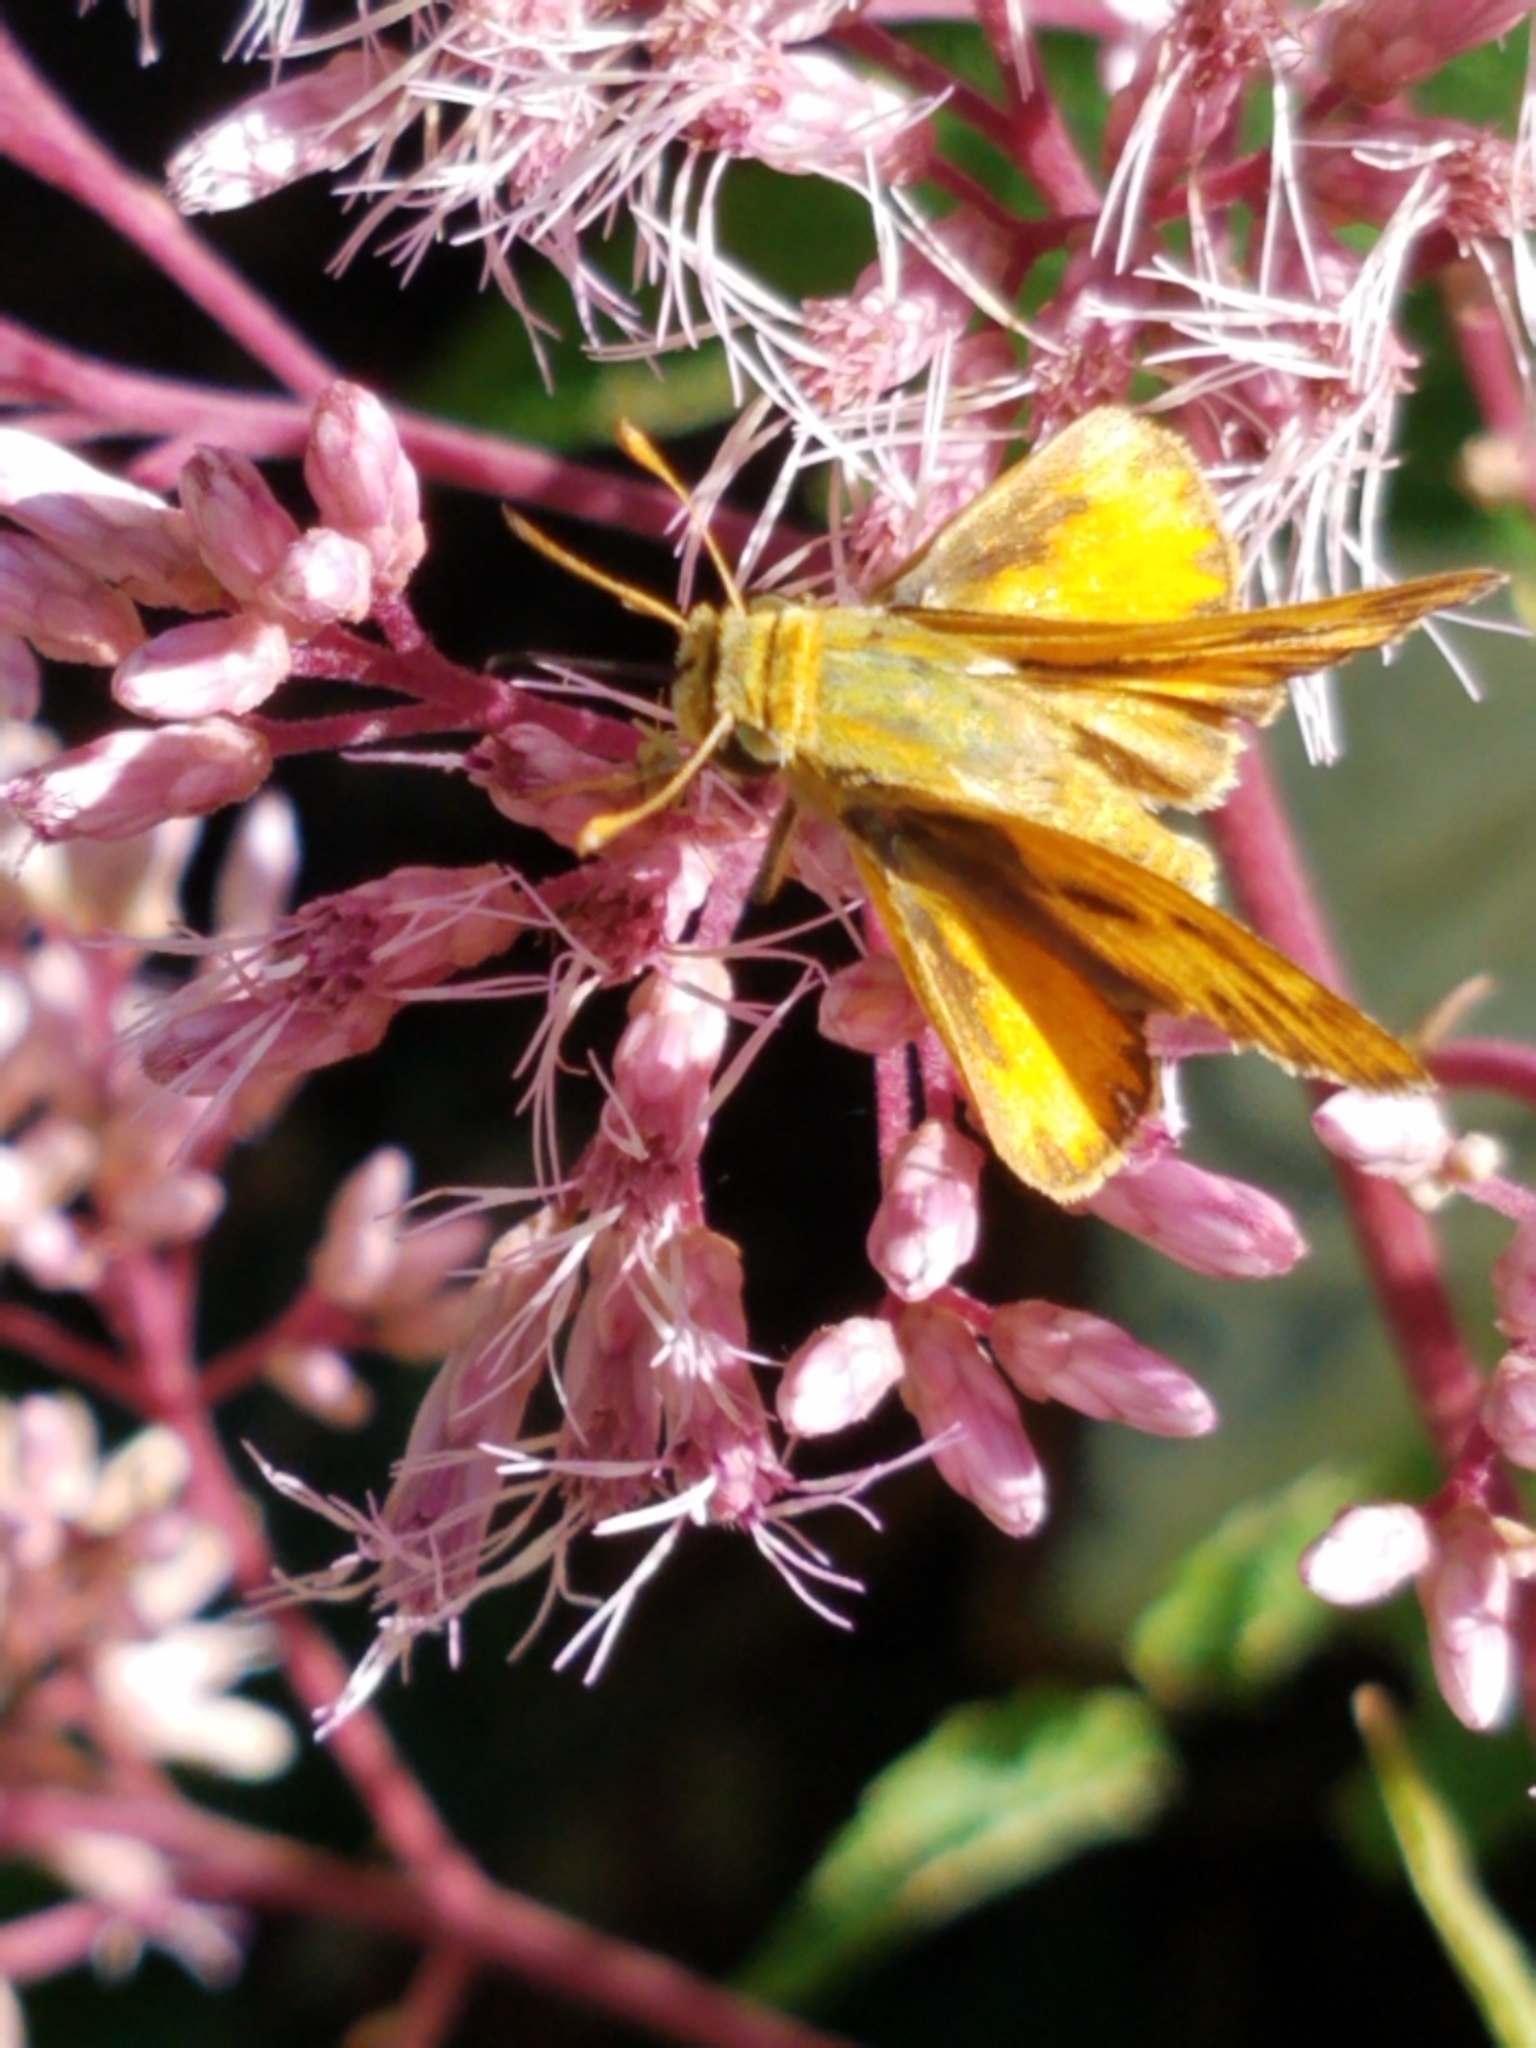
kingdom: Animalia
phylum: Arthropoda
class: Insecta
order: Lepidoptera
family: Hesperiidae
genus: Hylephila
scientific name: Hylephila phyleus
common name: Fiery skipper
